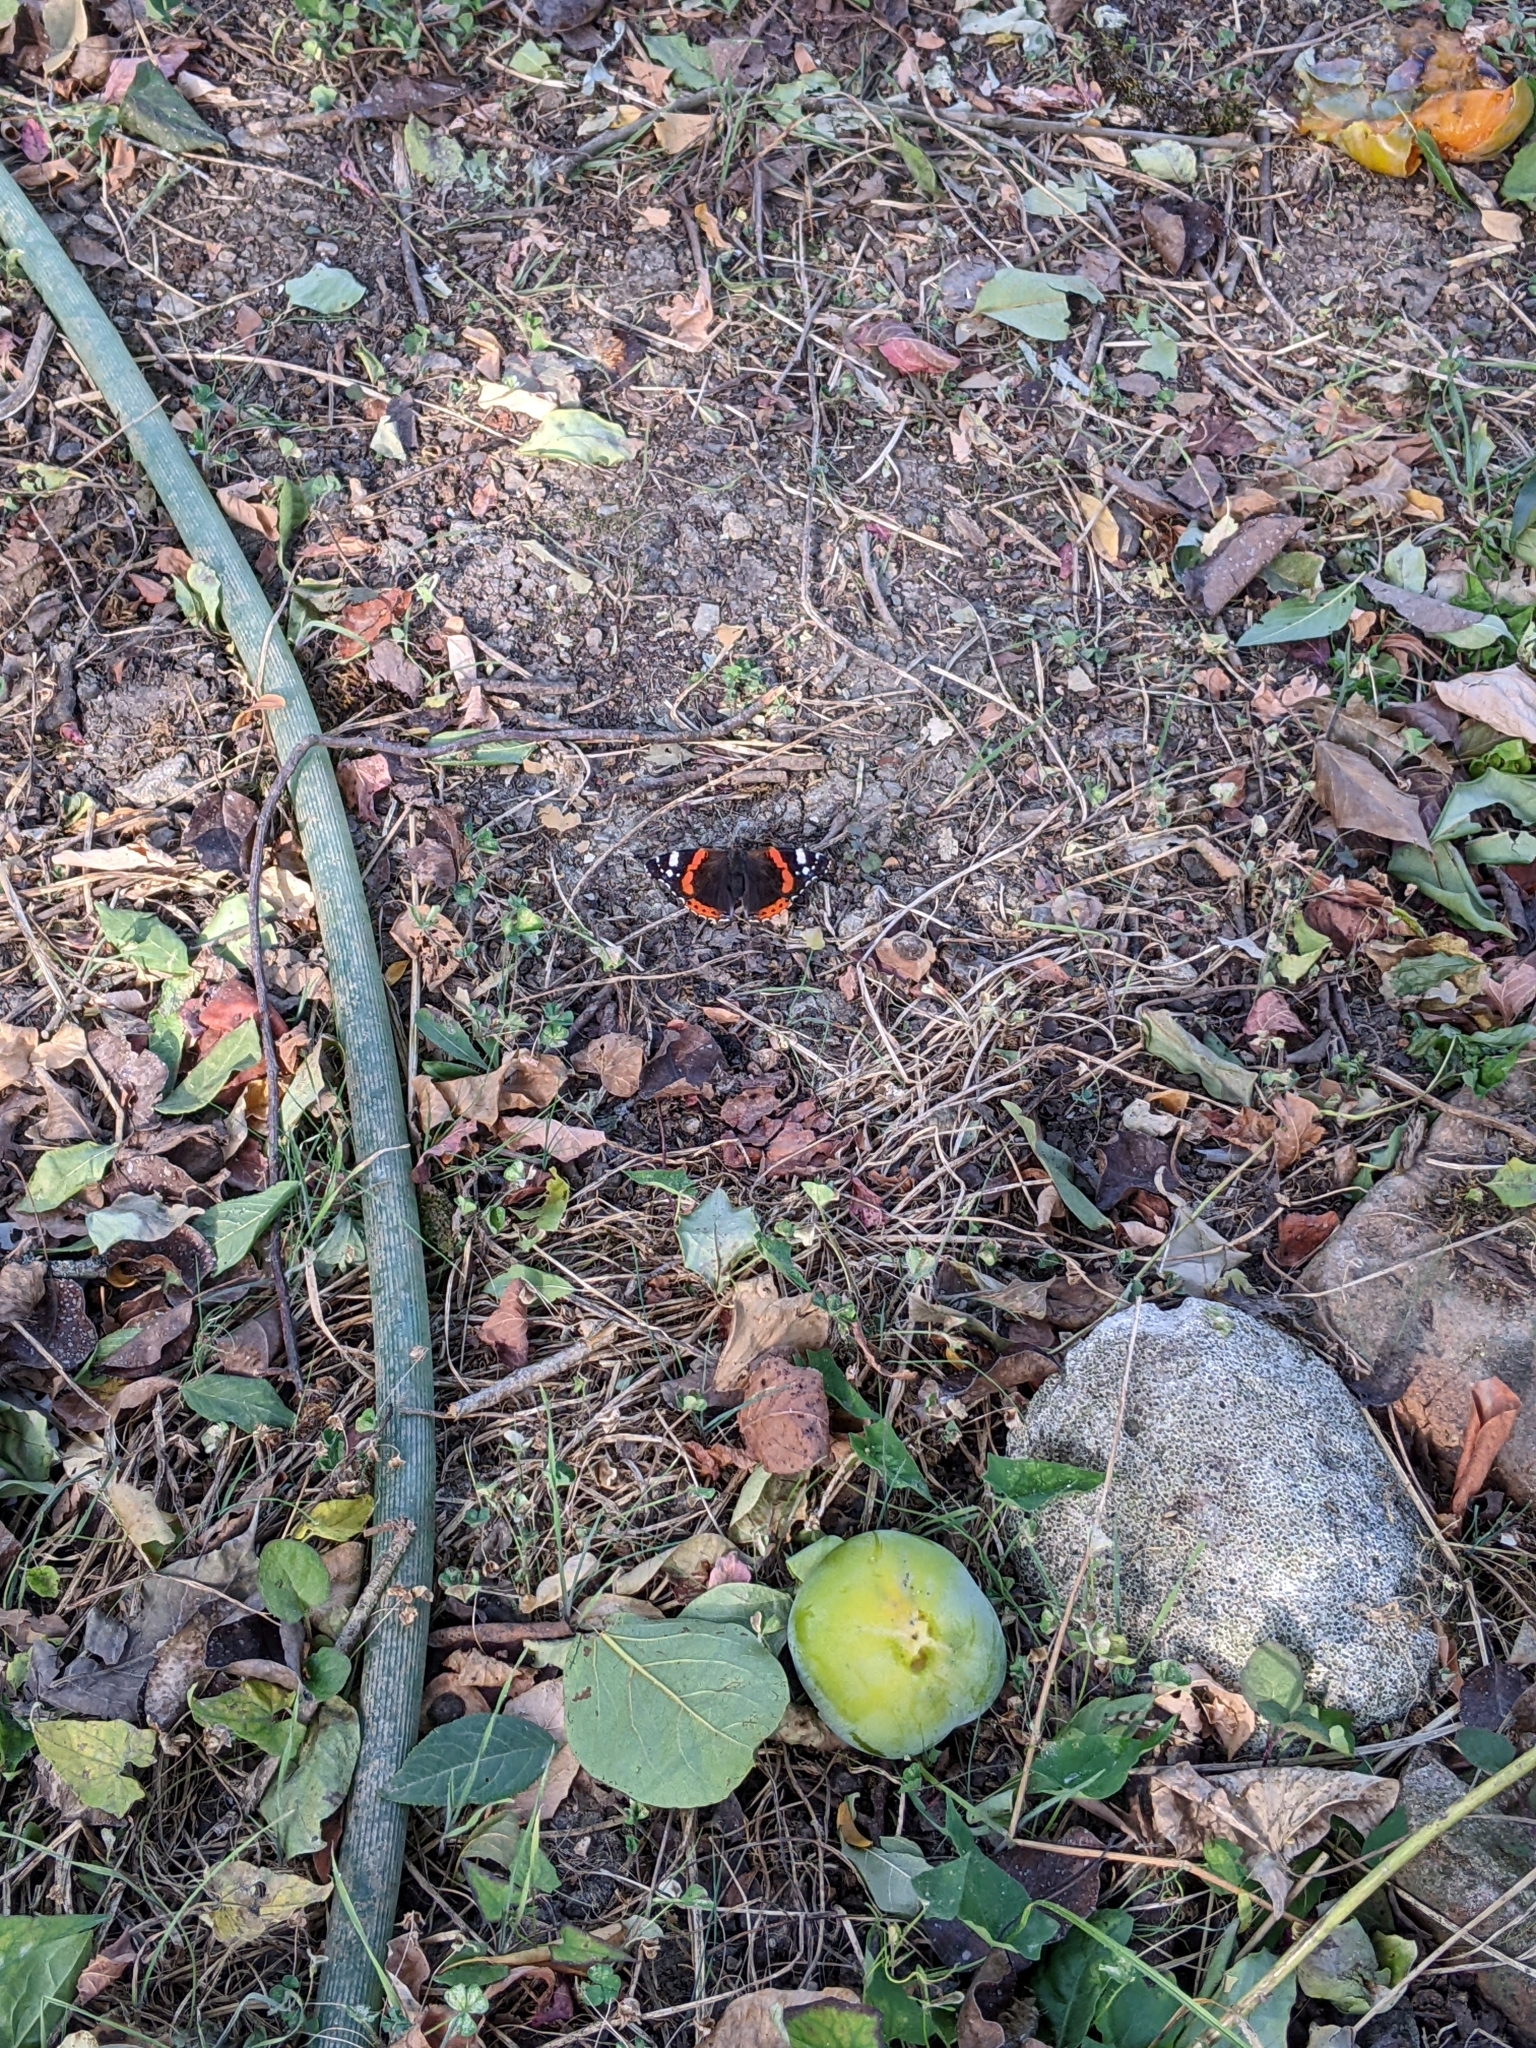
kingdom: Animalia
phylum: Arthropoda
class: Insecta
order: Lepidoptera
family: Nymphalidae
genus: Vanessa
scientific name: Vanessa atalanta
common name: Red admiral
